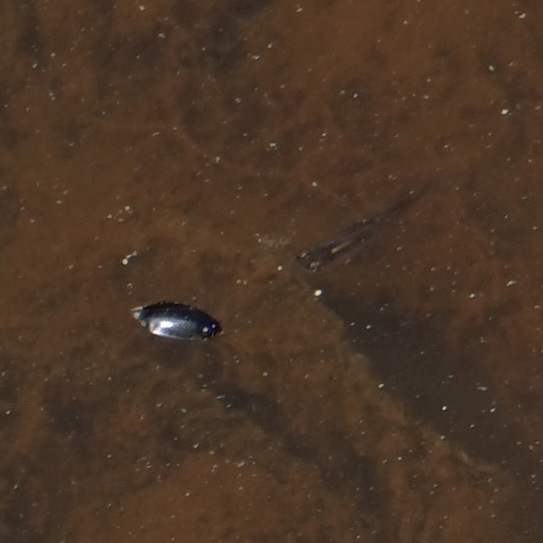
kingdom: Animalia
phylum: Chordata
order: Cyprinodontiformes
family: Poeciliidae
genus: Gambusia
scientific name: Gambusia holbrooki
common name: Eastern mosquitofish
